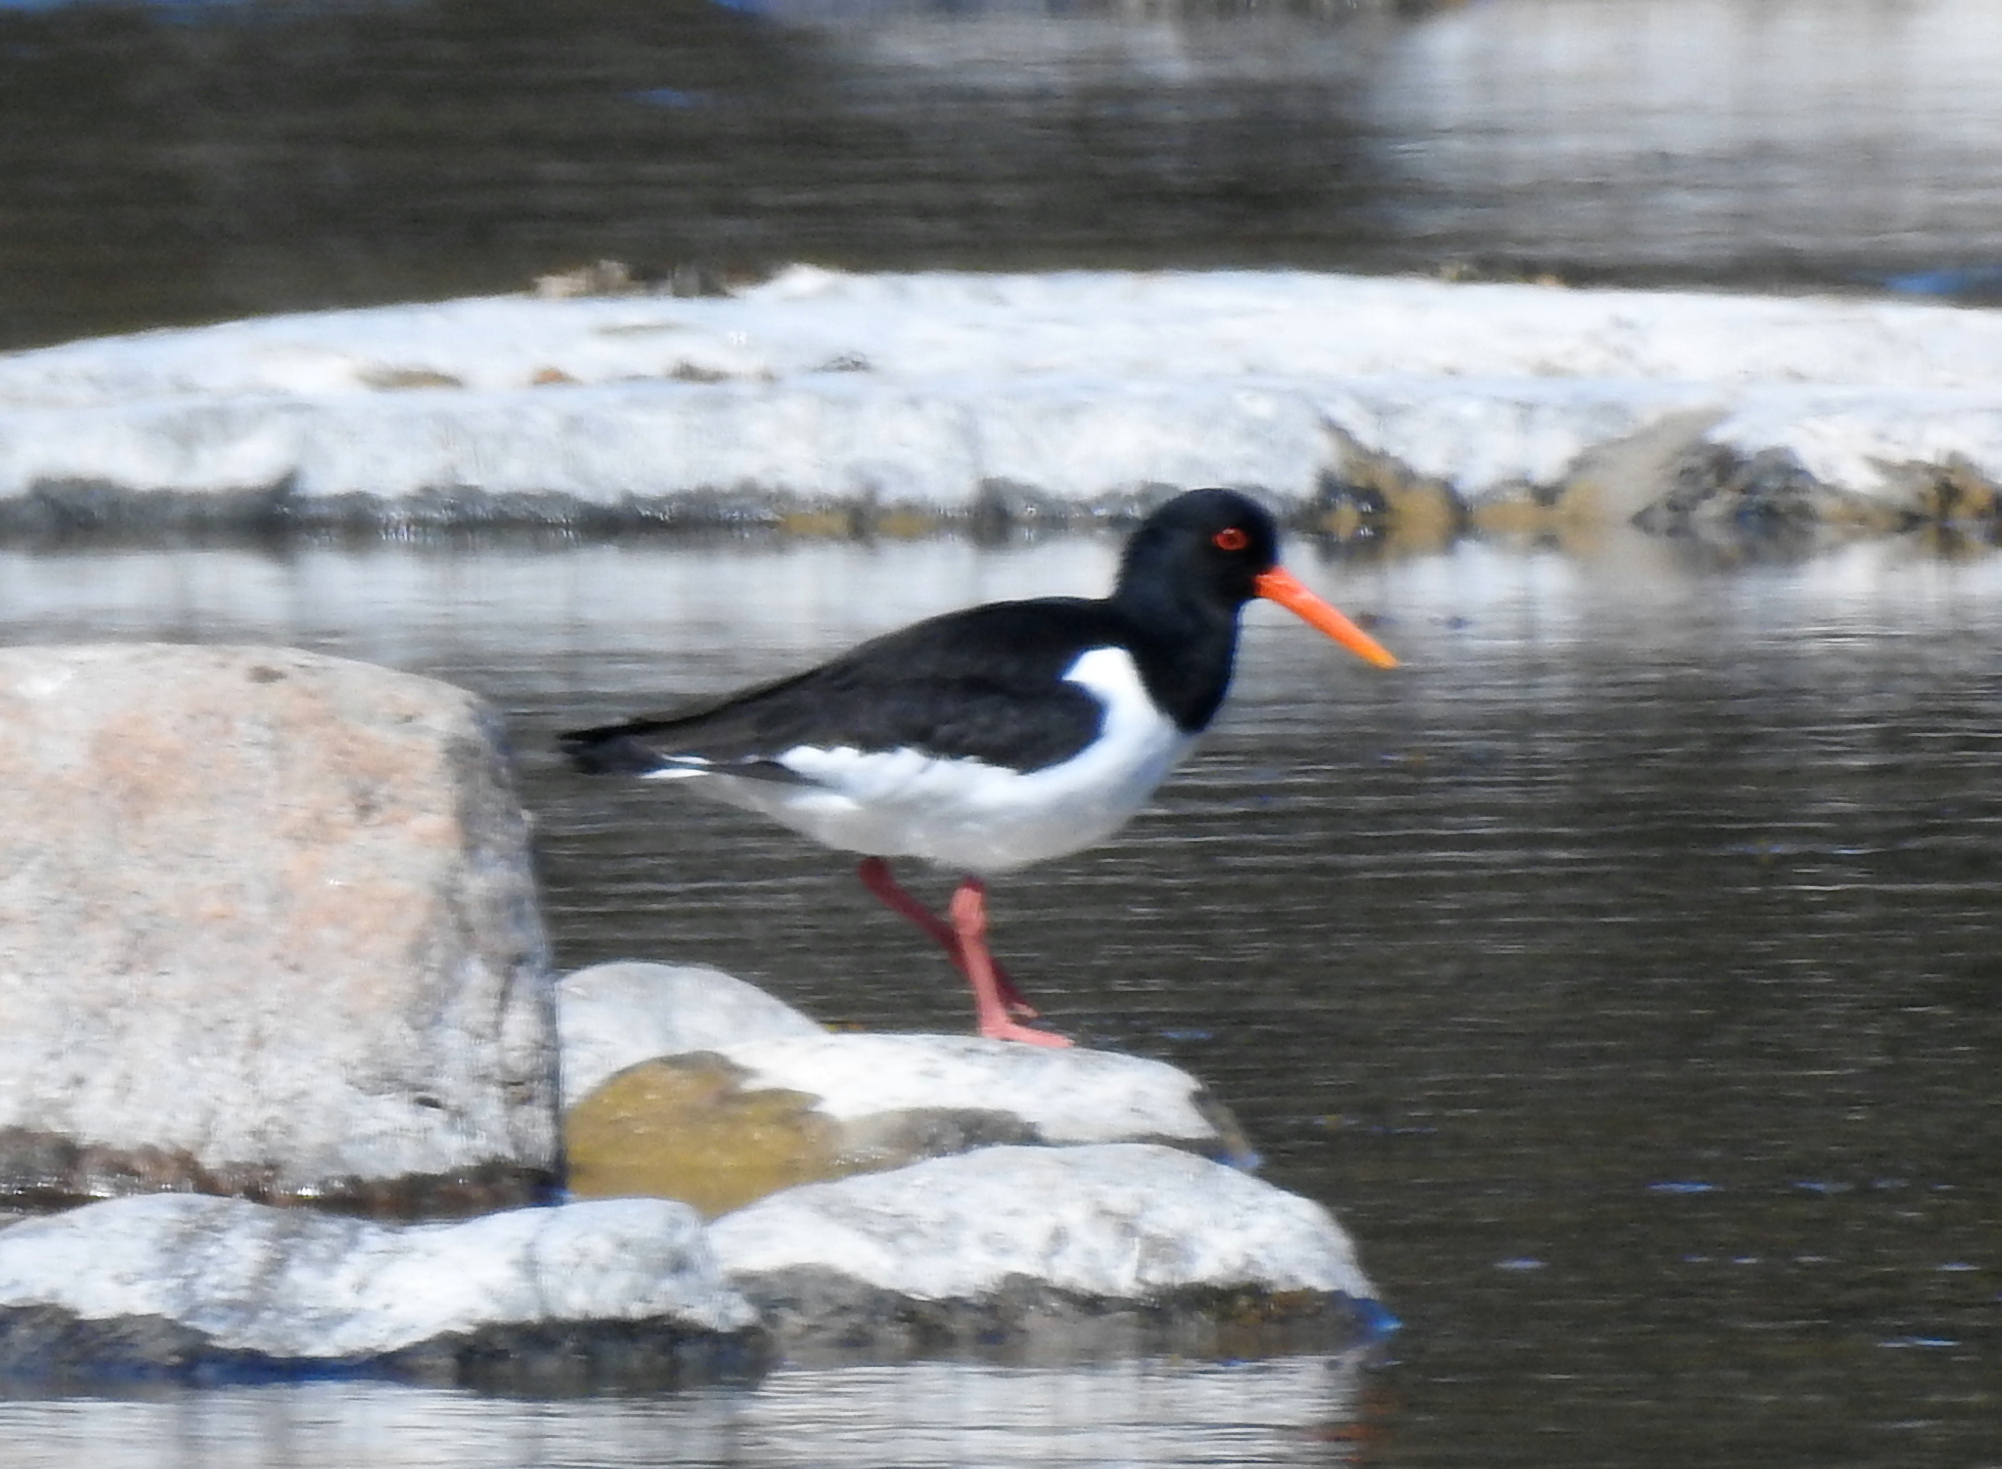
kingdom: Animalia
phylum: Chordata
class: Aves
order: Charadriiformes
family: Haematopodidae
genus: Haematopus
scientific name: Haematopus ostralegus
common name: Eurasian oystercatcher
